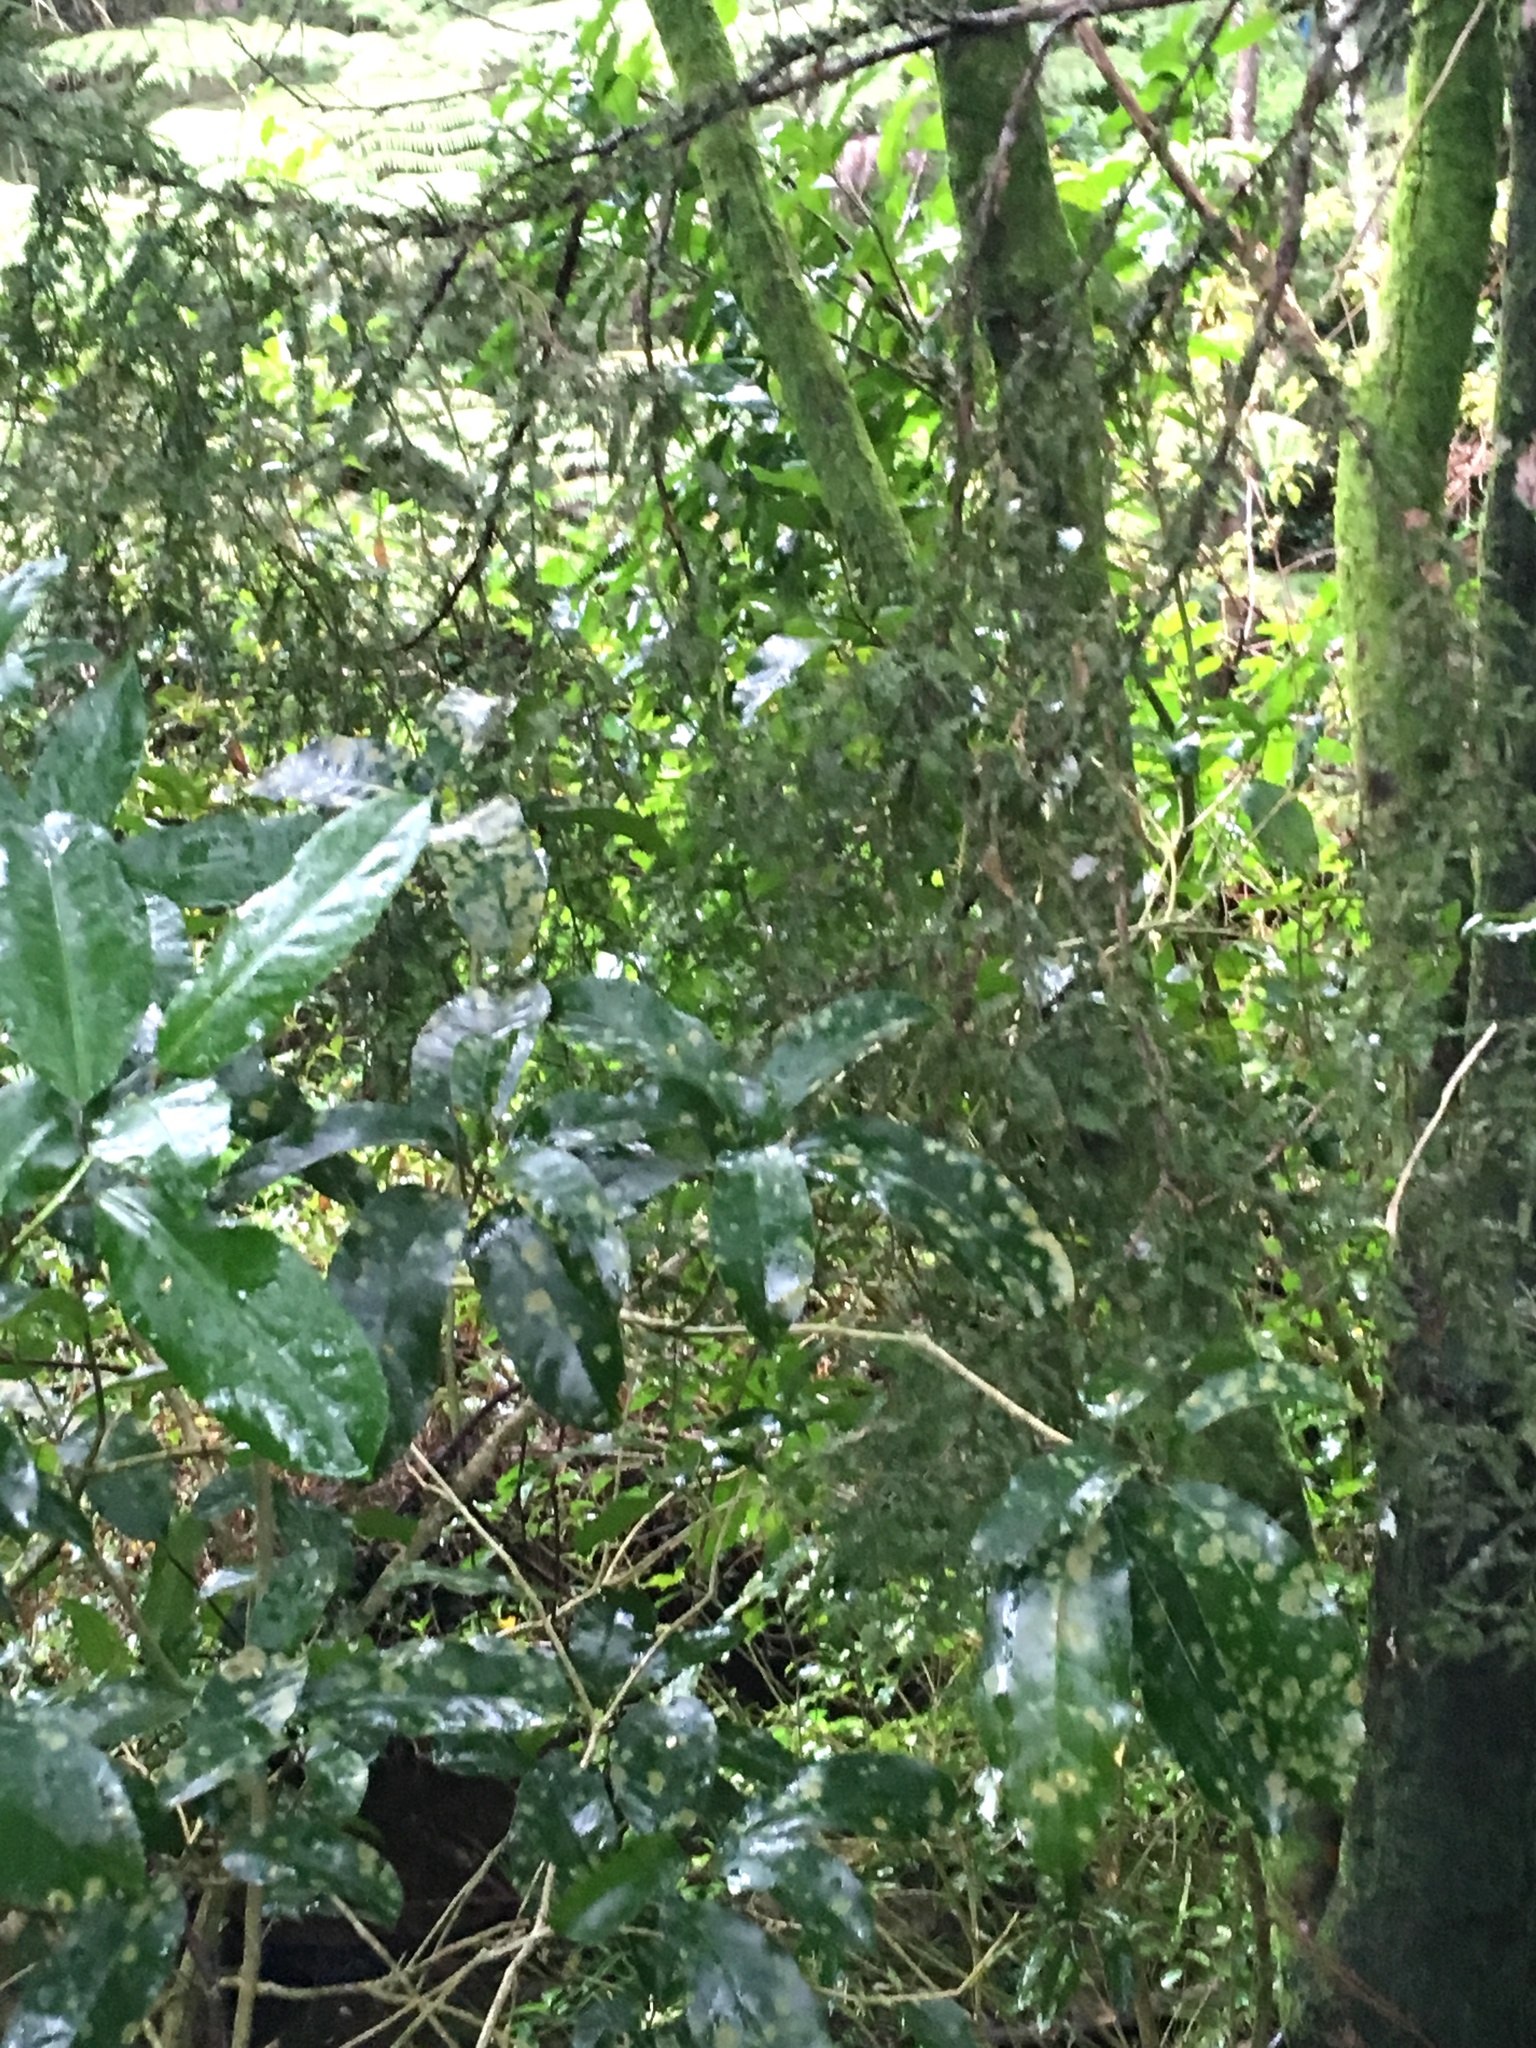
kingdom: Plantae
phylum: Tracheophyta
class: Pinopsida
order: Pinales
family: Podocarpaceae
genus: Dacrycarpus
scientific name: Dacrycarpus dacrydioides
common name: White pine
